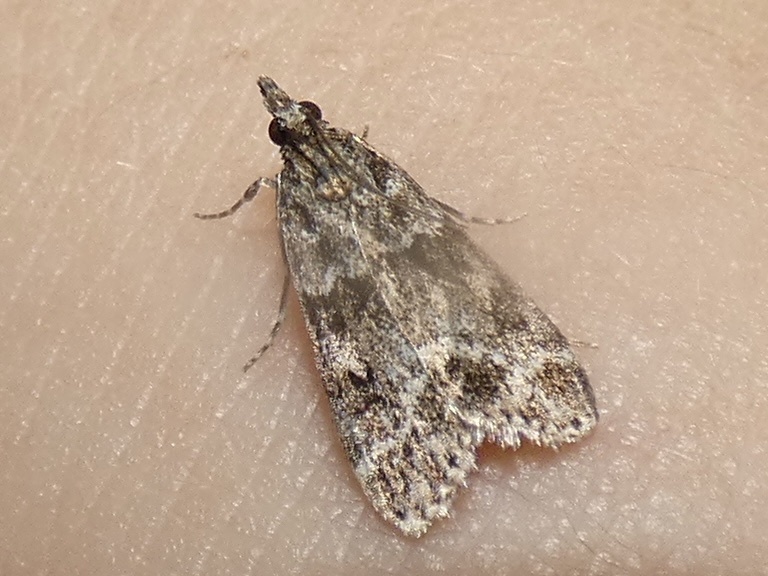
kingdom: Animalia
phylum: Arthropoda
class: Insecta
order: Lepidoptera
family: Crambidae
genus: Eudonia
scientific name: Eudonia mercurella
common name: Small grey
